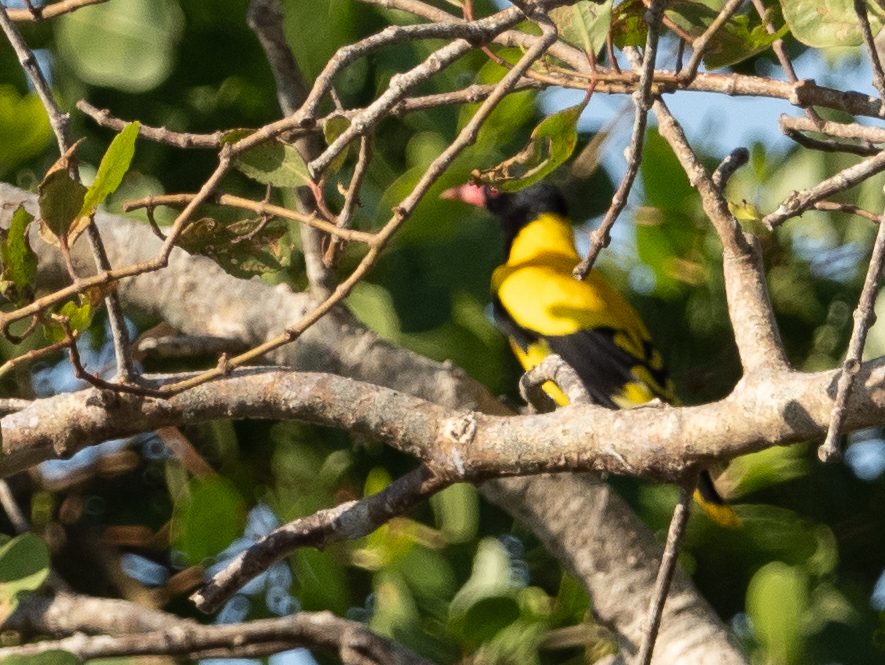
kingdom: Animalia
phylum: Chordata
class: Aves
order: Passeriformes
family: Oriolidae
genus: Oriolus
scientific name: Oriolus xanthornus
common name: Black-hooded oriole
